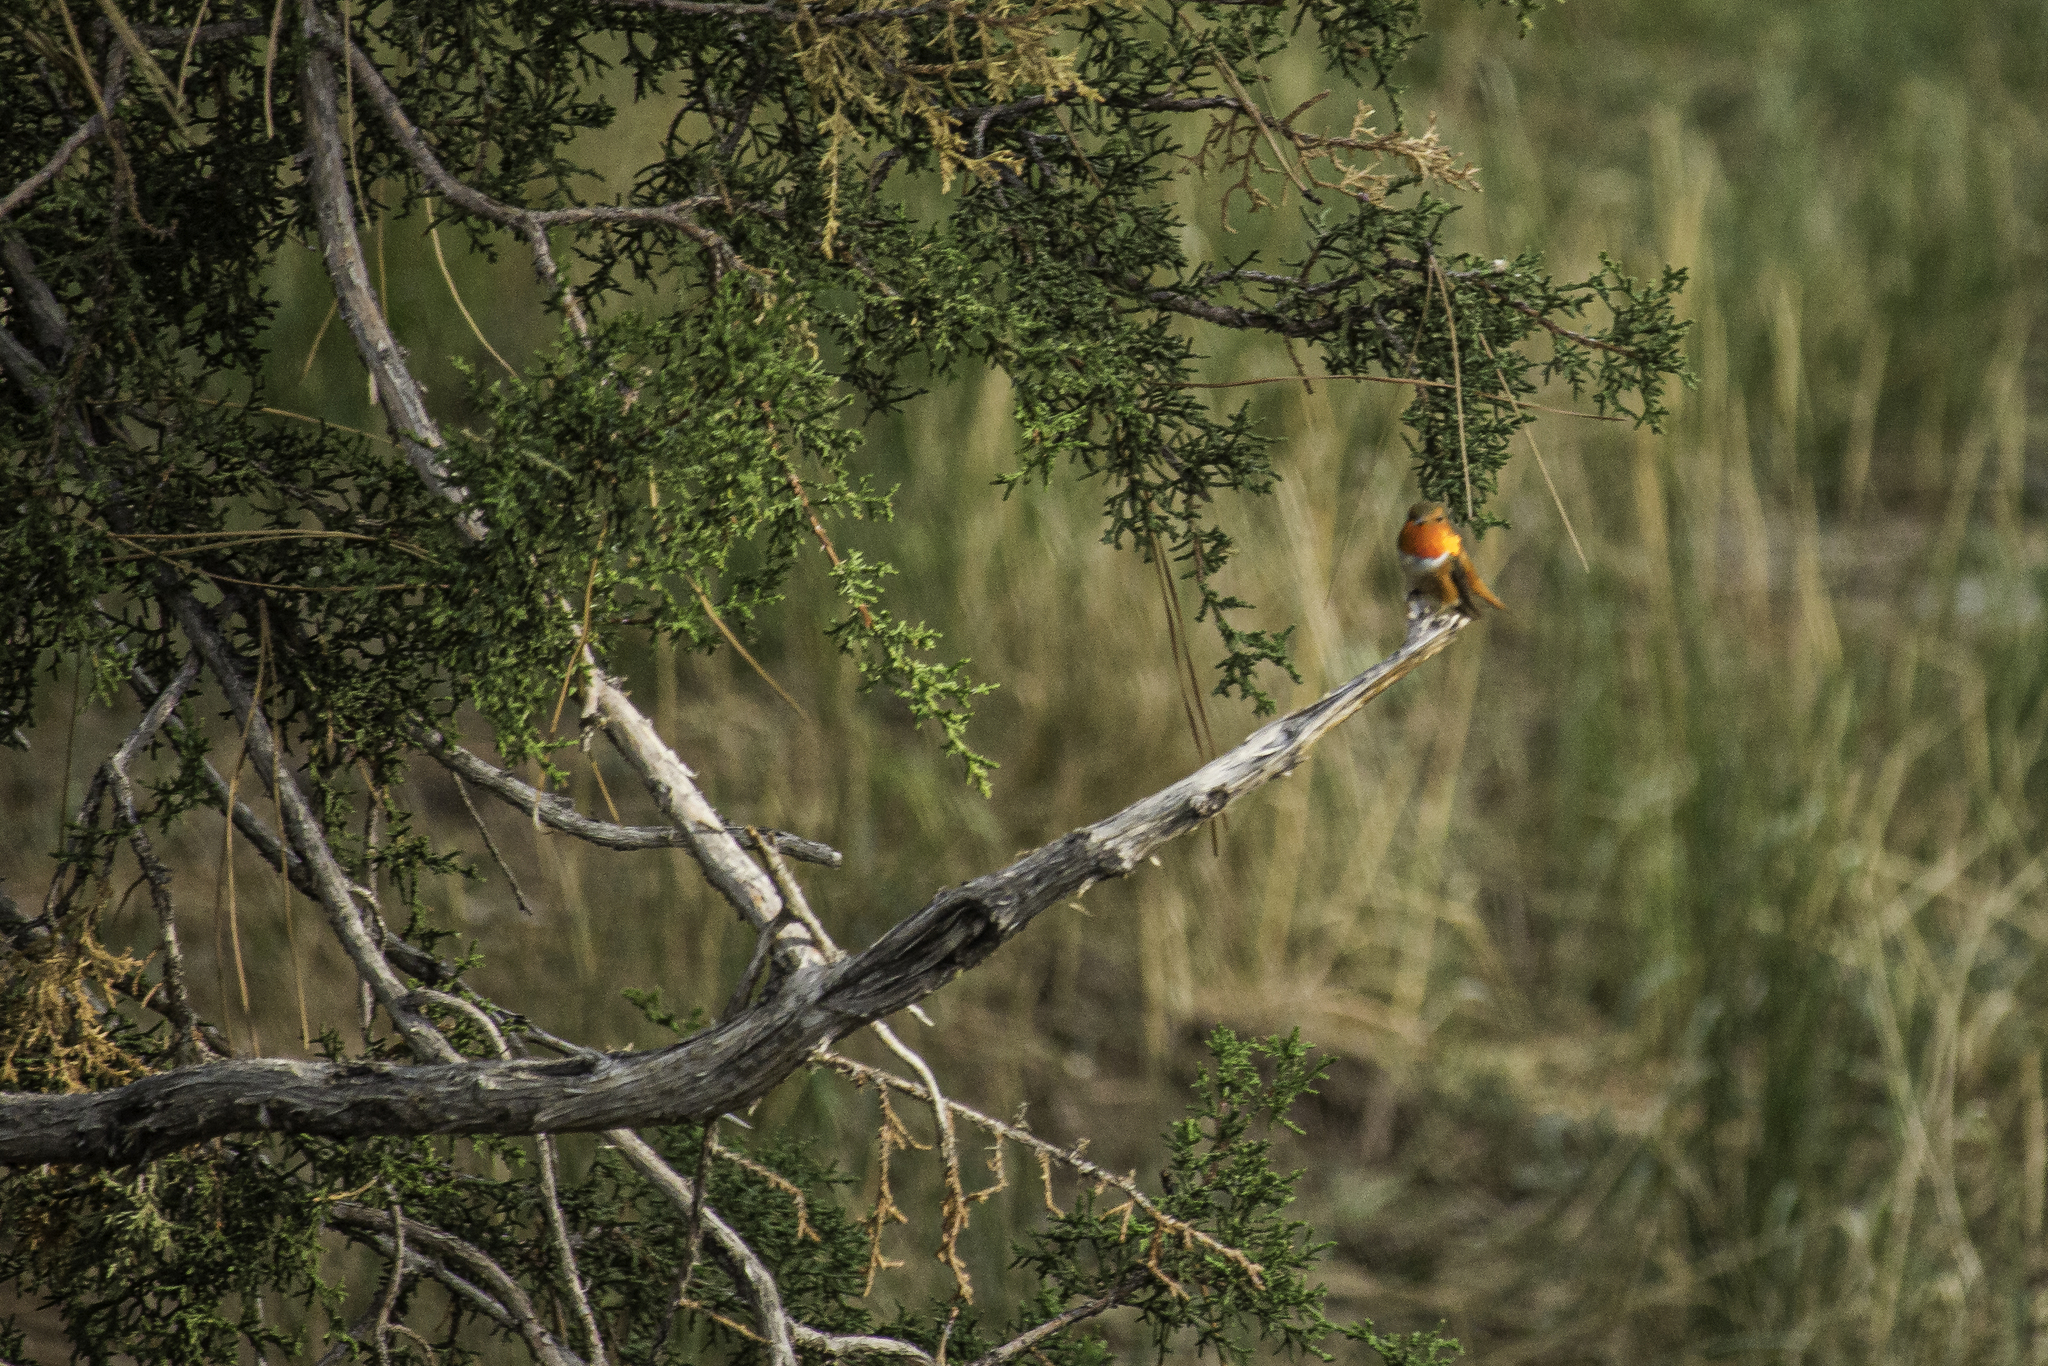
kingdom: Animalia
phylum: Chordata
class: Aves
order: Apodiformes
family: Trochilidae
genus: Selasphorus
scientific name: Selasphorus rufus
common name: Rufous hummingbird
